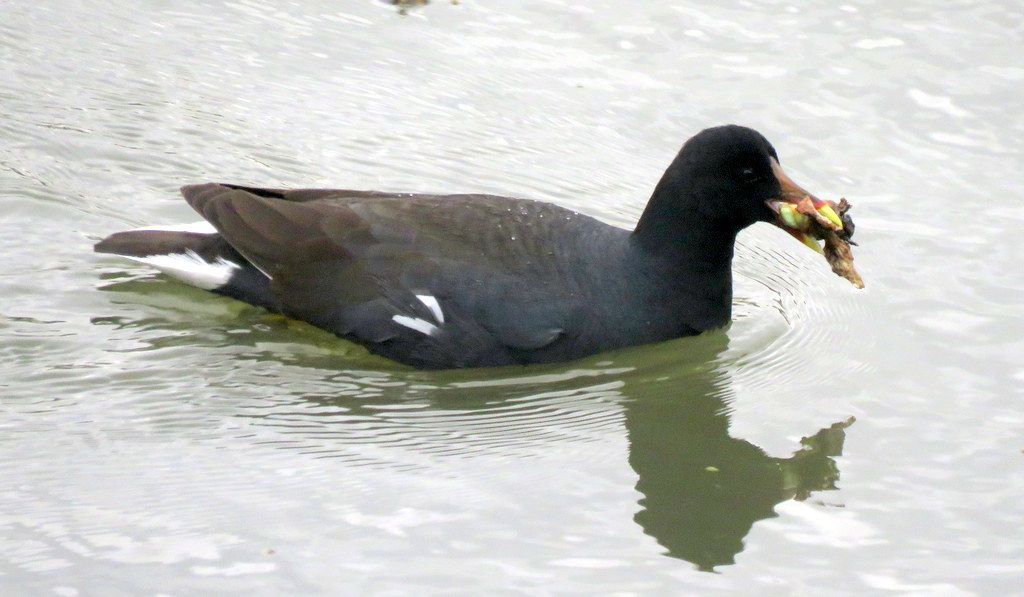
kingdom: Animalia
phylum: Chordata
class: Aves
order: Gruiformes
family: Rallidae
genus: Gallinula
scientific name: Gallinula chloropus
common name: Common moorhen
